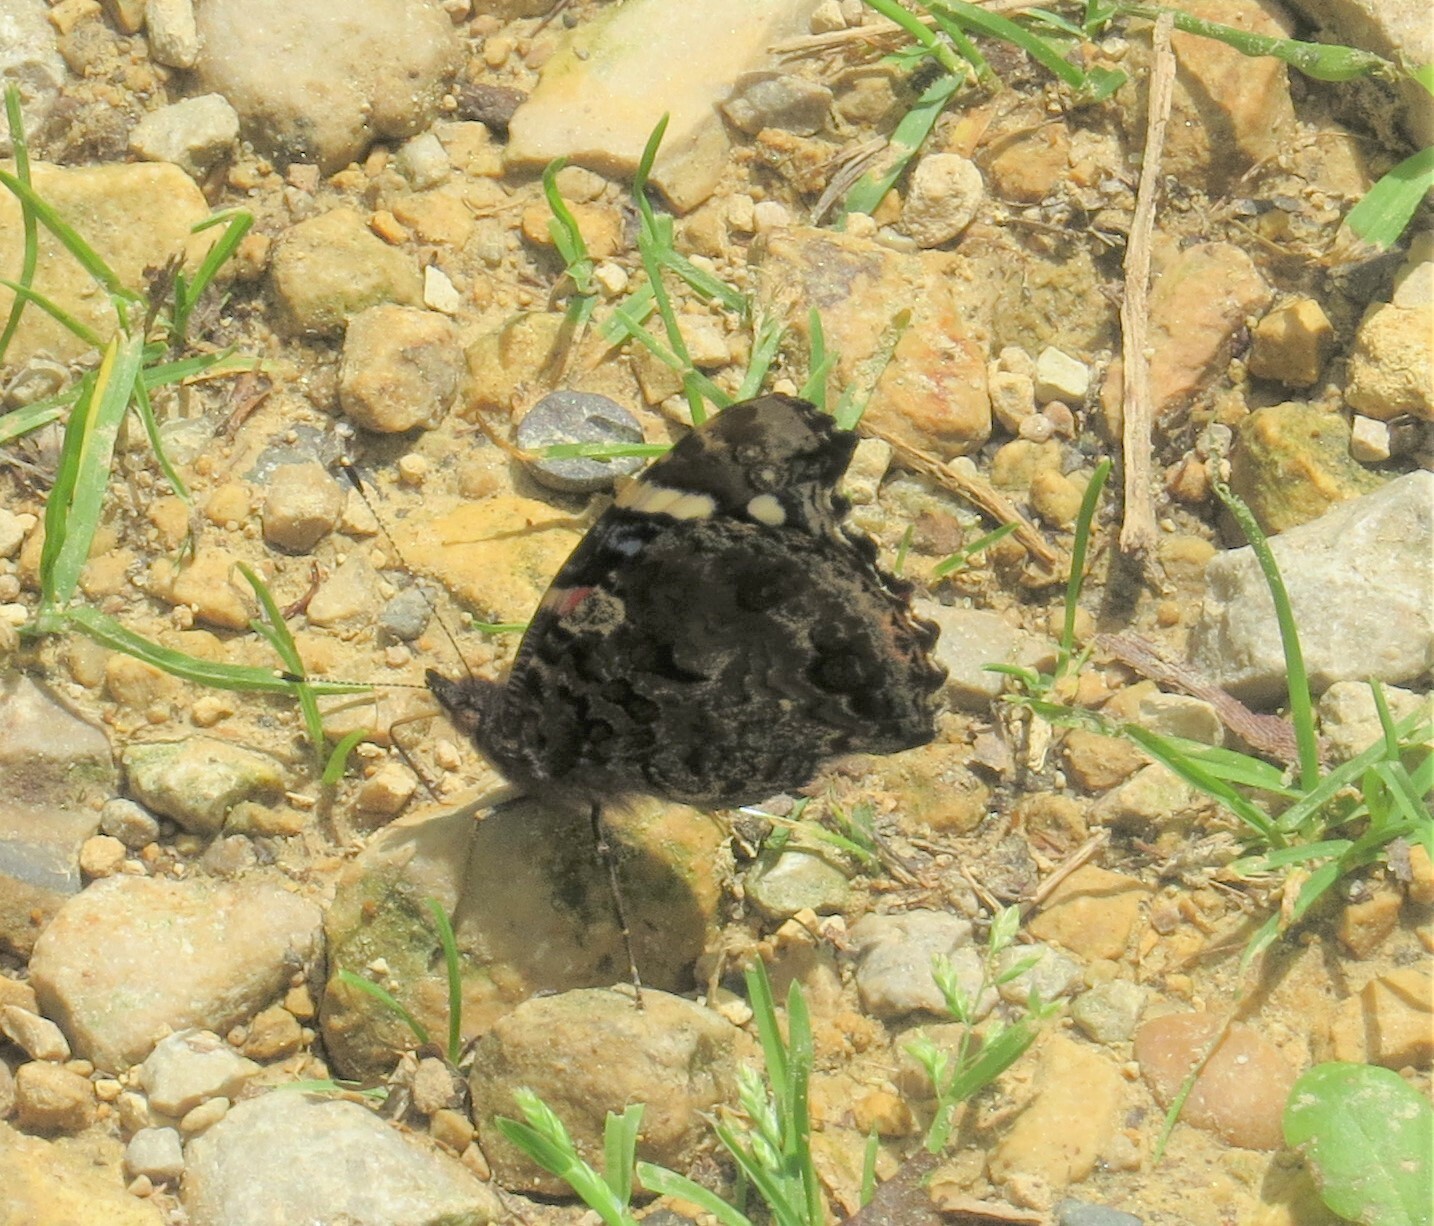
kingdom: Animalia
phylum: Arthropoda
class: Insecta
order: Lepidoptera
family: Nymphalidae
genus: Vanessa
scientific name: Vanessa atalanta
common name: Red admiral
